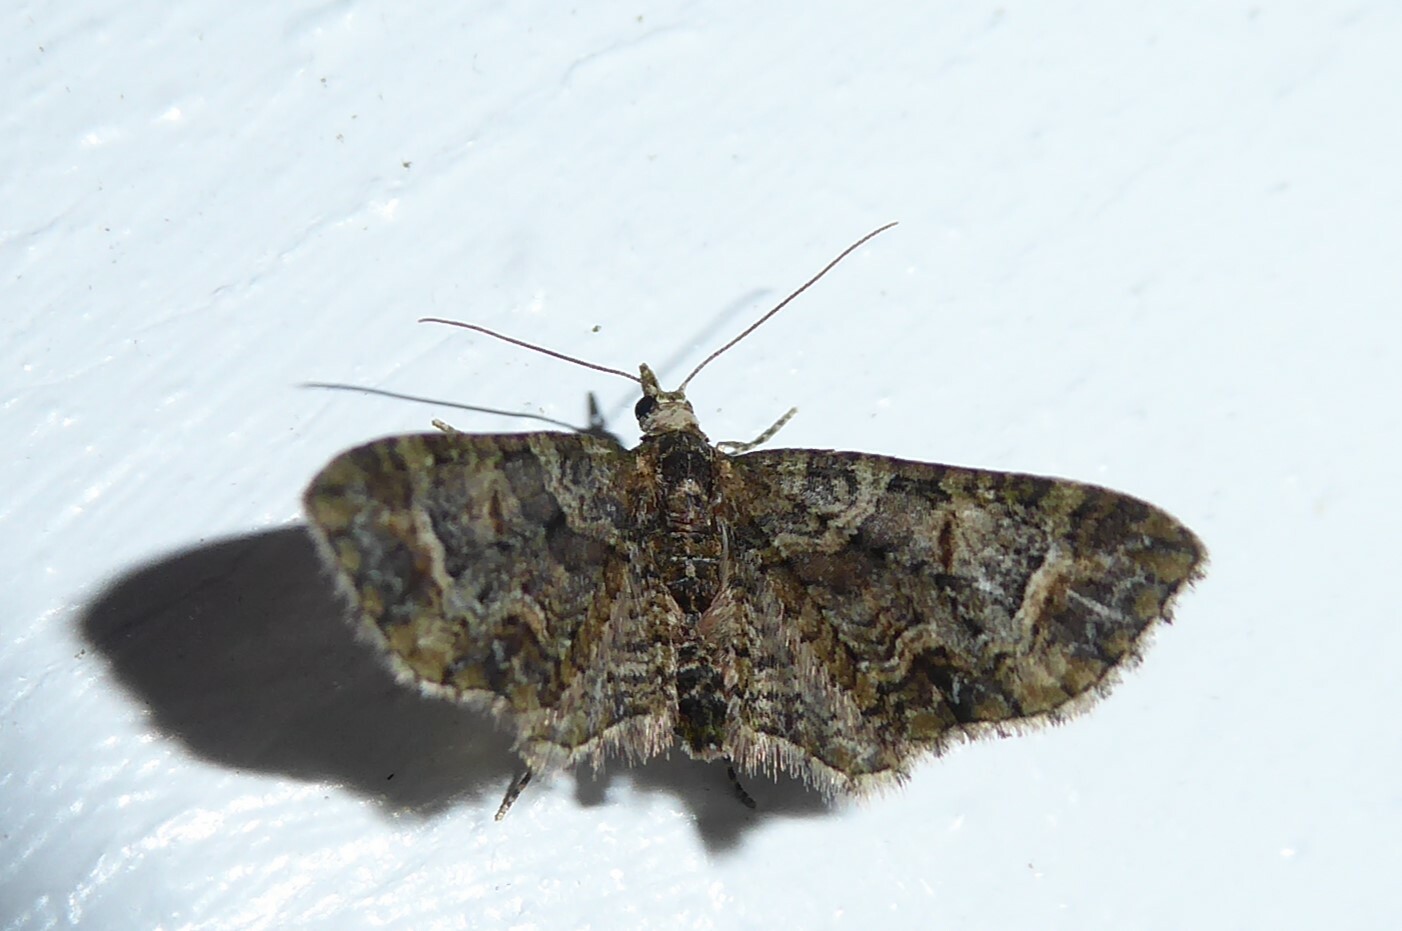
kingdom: Animalia
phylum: Arthropoda
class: Insecta
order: Lepidoptera
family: Geometridae
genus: Idaea
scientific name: Idaea mutanda
